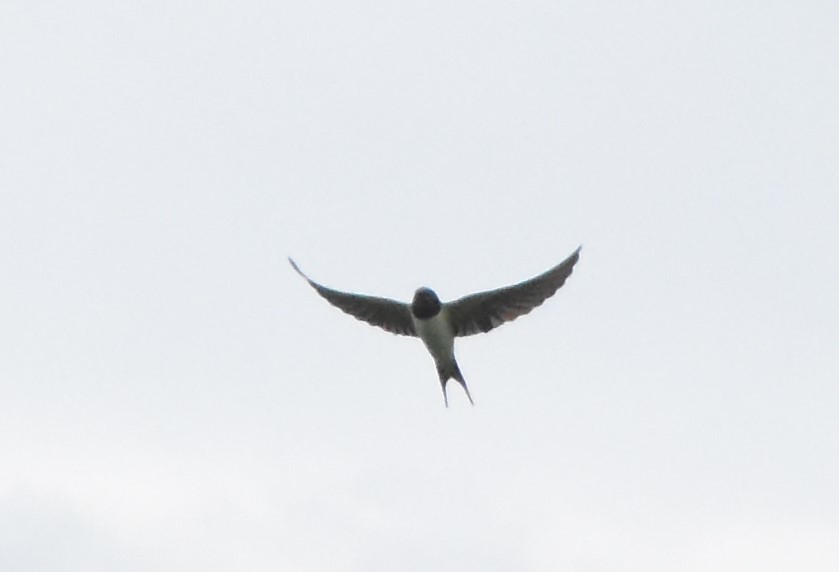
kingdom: Animalia
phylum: Chordata
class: Aves
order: Passeriformes
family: Hirundinidae
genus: Hirundo
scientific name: Hirundo rustica
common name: Barn swallow
